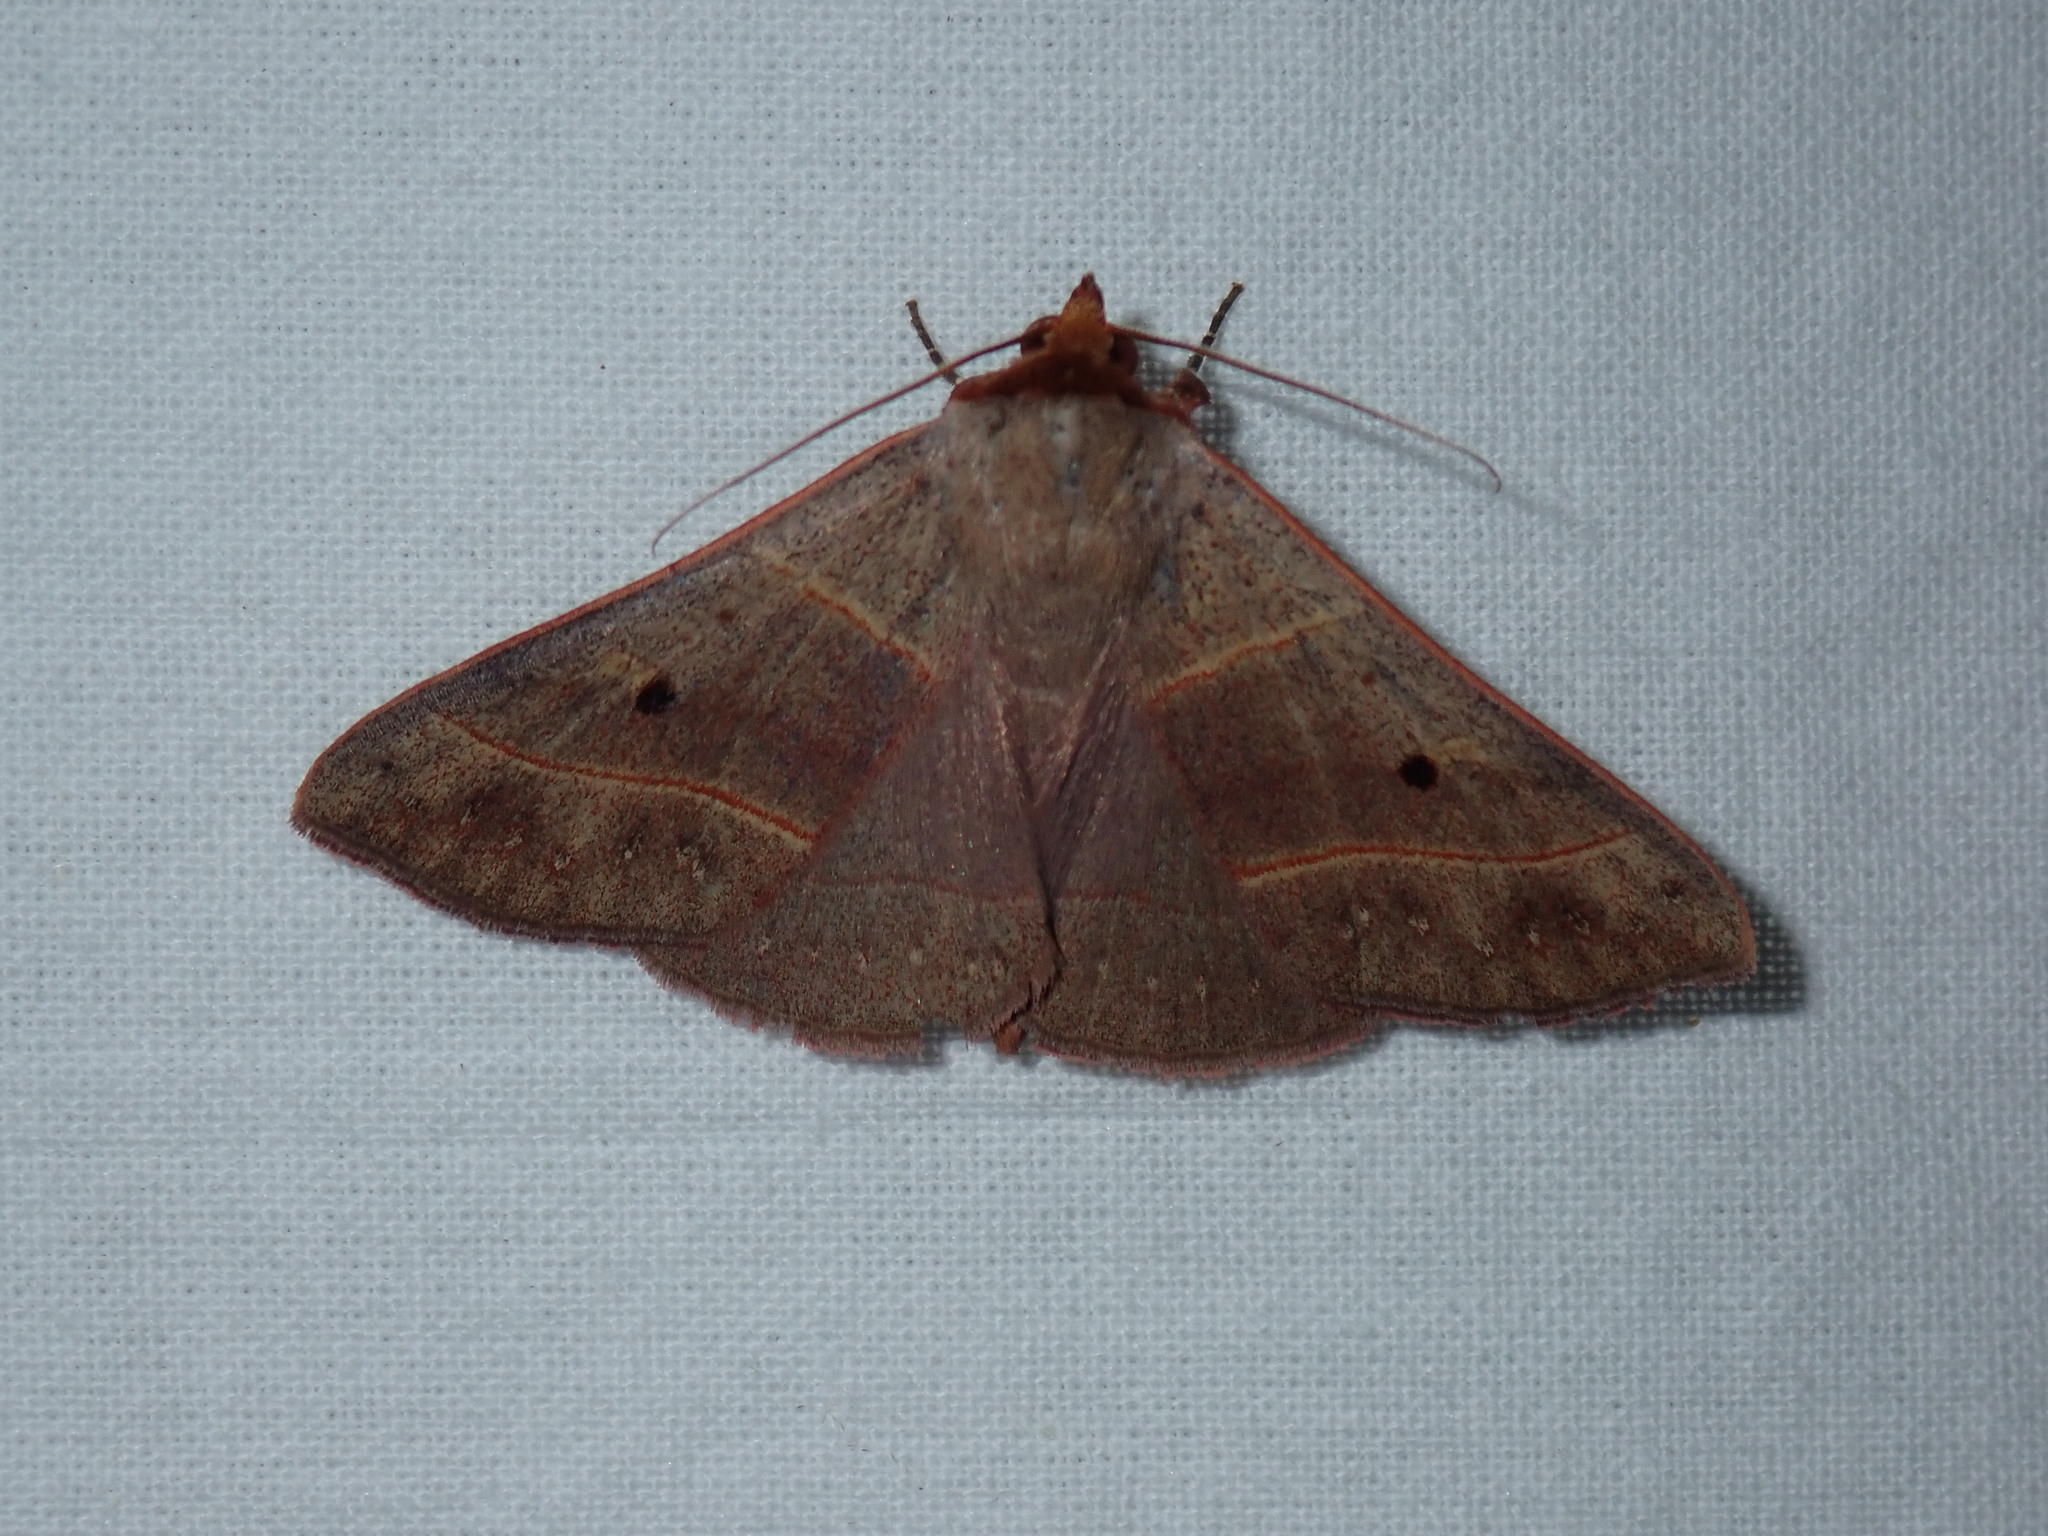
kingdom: Animalia
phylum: Arthropoda
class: Insecta
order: Lepidoptera
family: Erebidae
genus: Panopoda
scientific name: Panopoda rufimargo
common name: Red-lined panopoda moth
